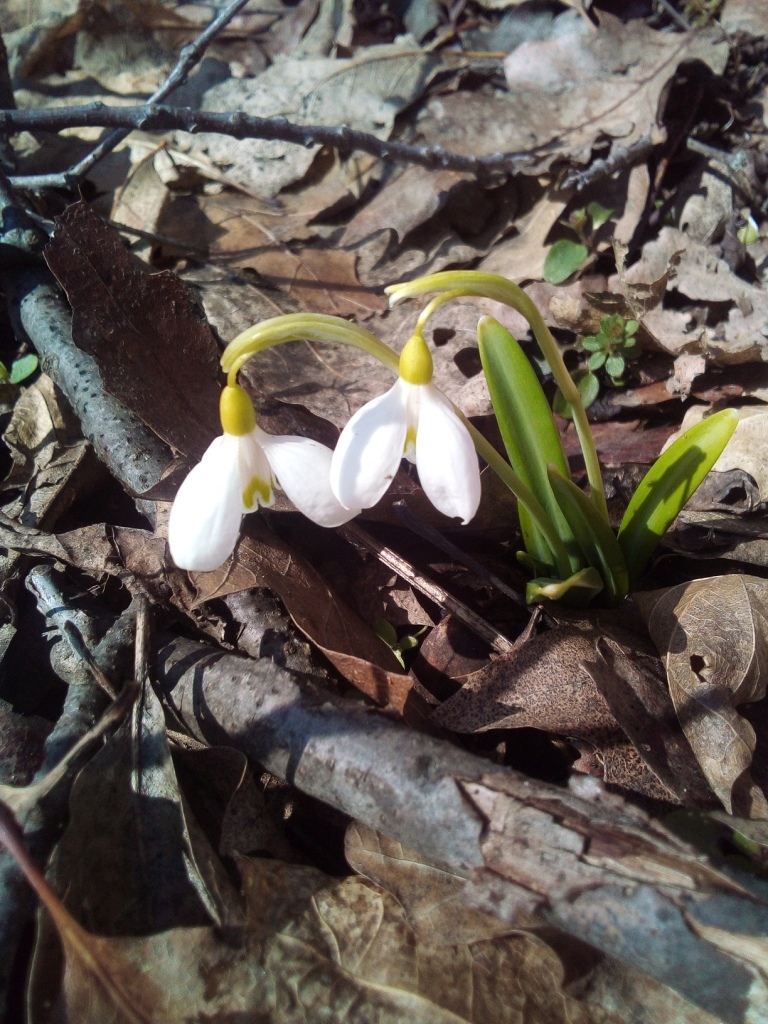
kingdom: Plantae
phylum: Tracheophyta
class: Liliopsida
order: Asparagales
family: Amaryllidaceae
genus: Galanthus
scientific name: Galanthus plicatus
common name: Pleated snowdrop
